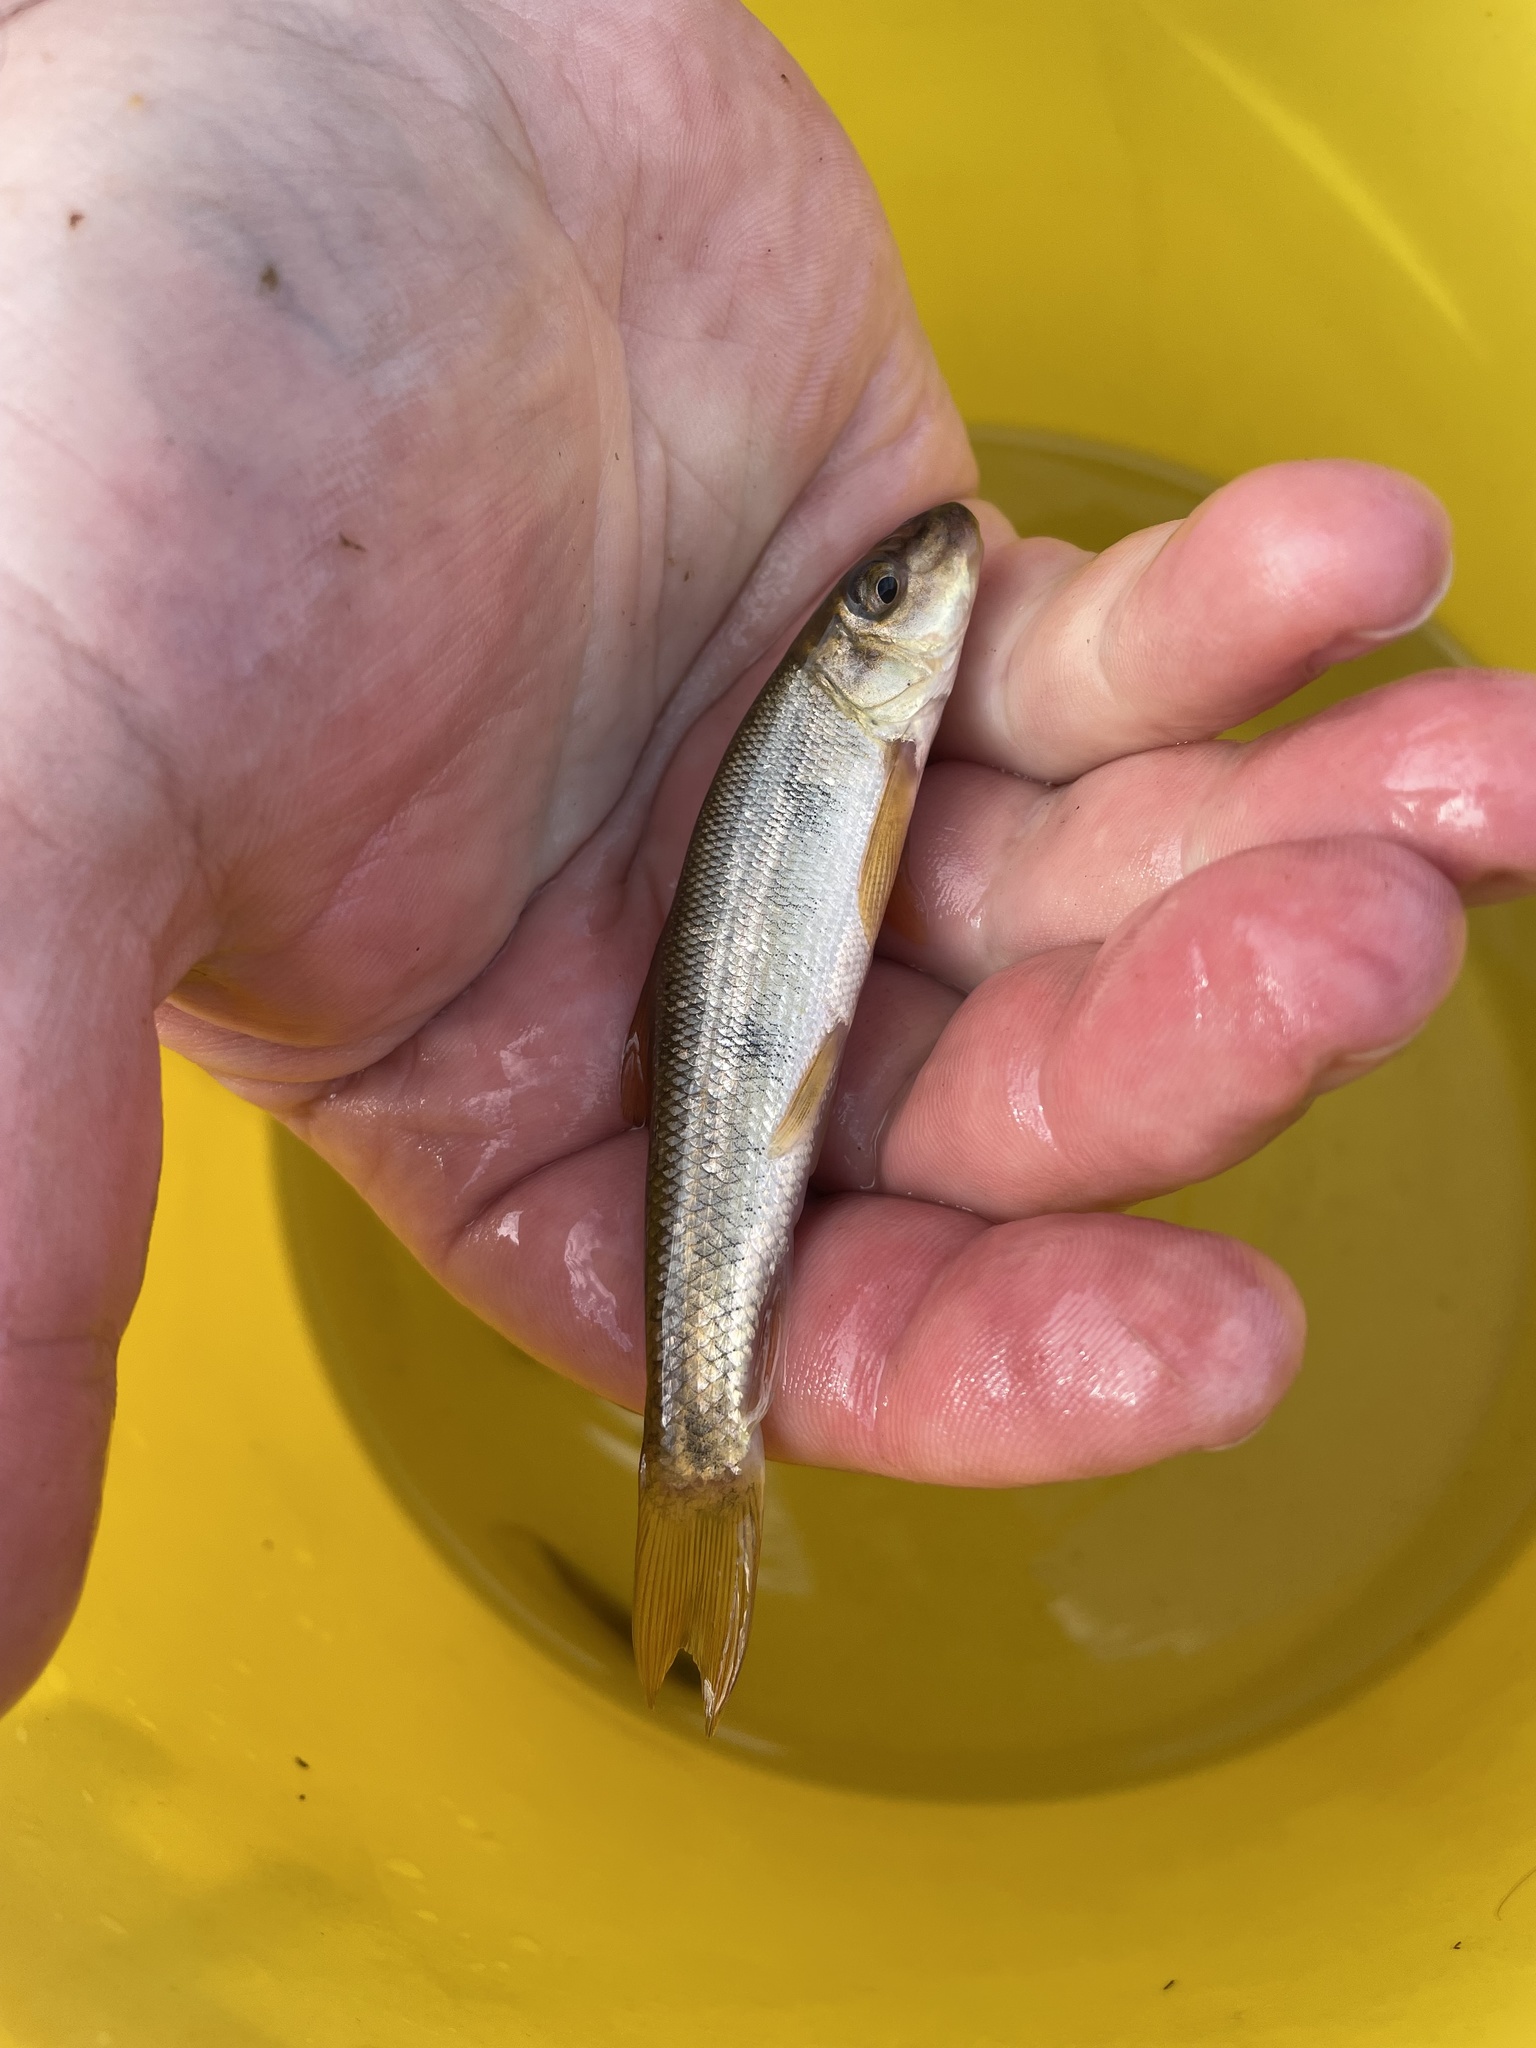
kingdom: Animalia
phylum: Chordata
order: Cypriniformes
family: Catostomidae
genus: Catostomus
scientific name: Catostomus commersonii
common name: White sucker
